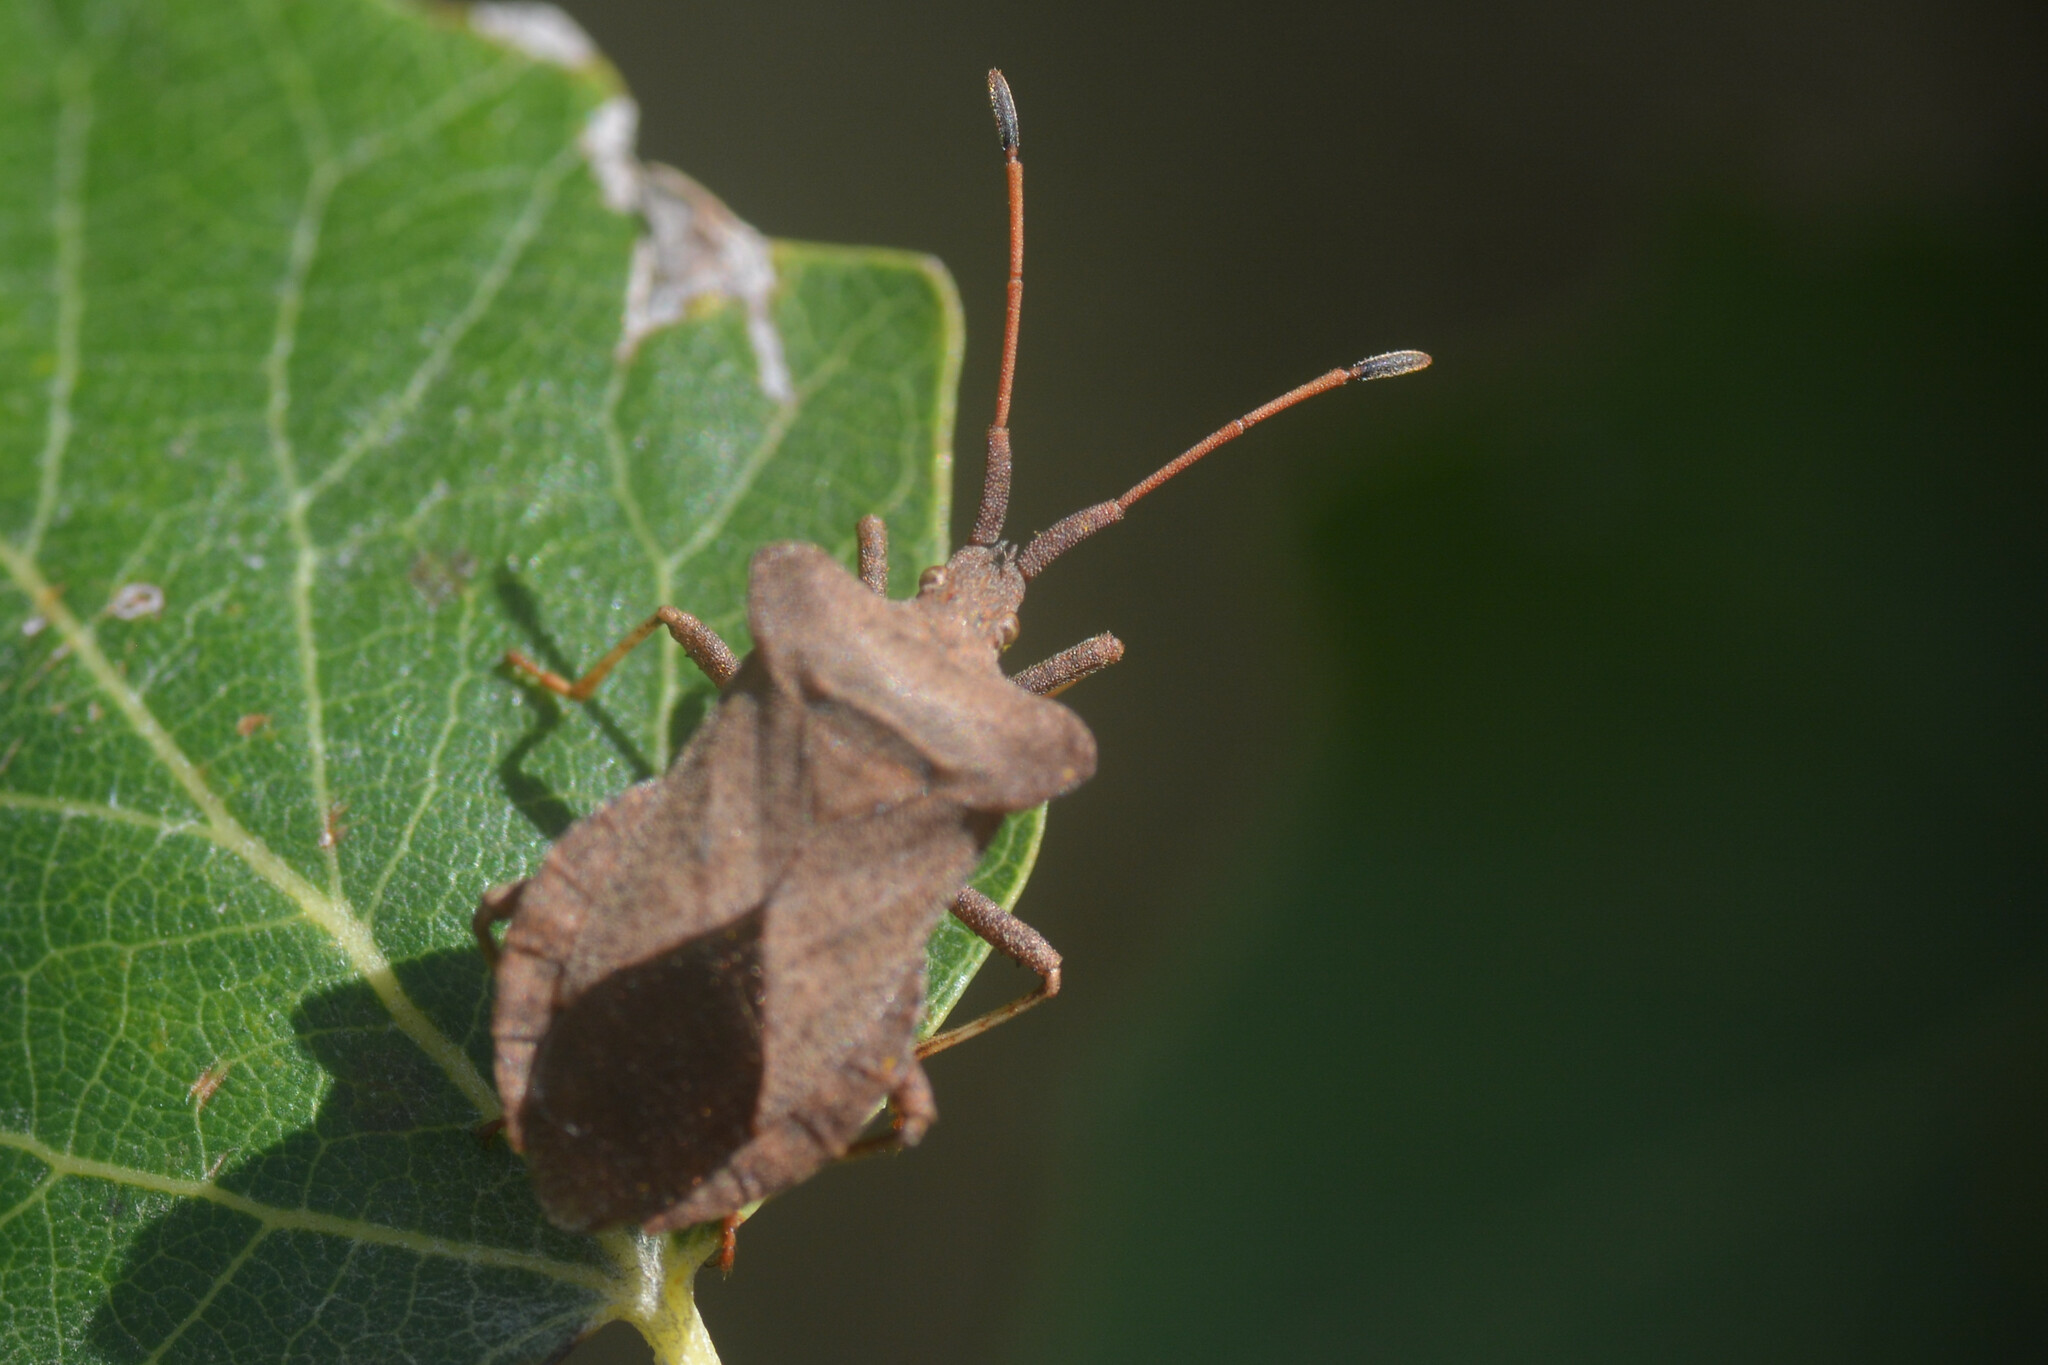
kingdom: Animalia
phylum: Arthropoda
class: Insecta
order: Hemiptera
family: Coreidae
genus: Coreus
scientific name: Coreus marginatus
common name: Dock bug
